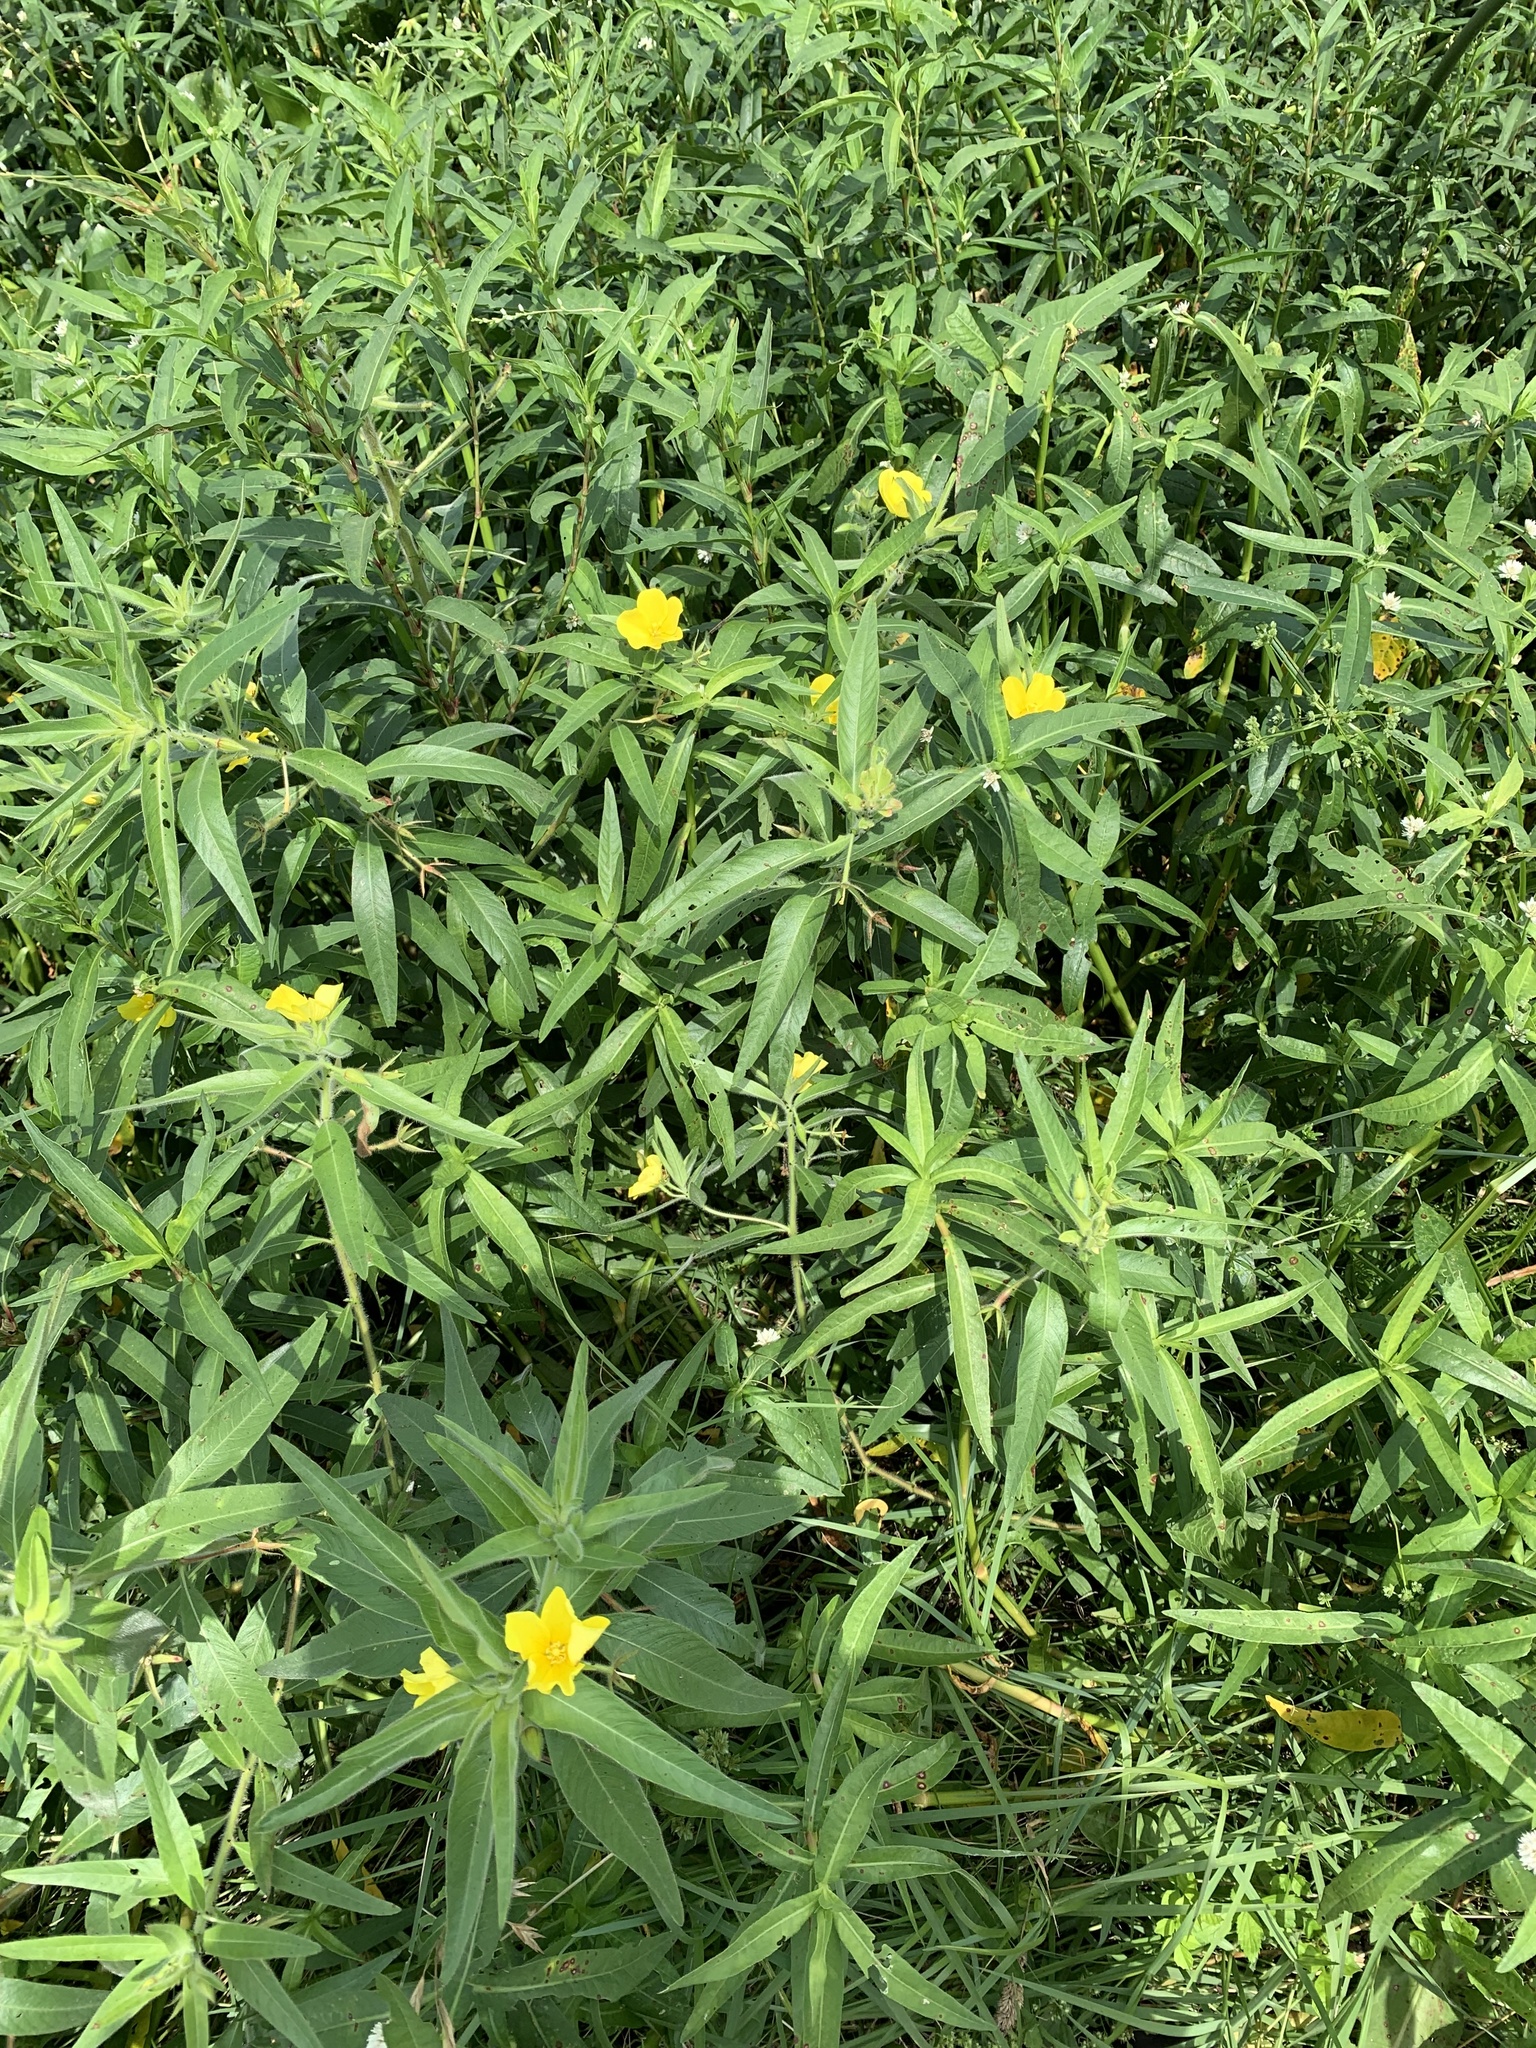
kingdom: Plantae
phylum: Tracheophyta
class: Magnoliopsida
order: Myrtales
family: Onagraceae
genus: Ludwigia
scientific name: Ludwigia grandiflora
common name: Water primrose
